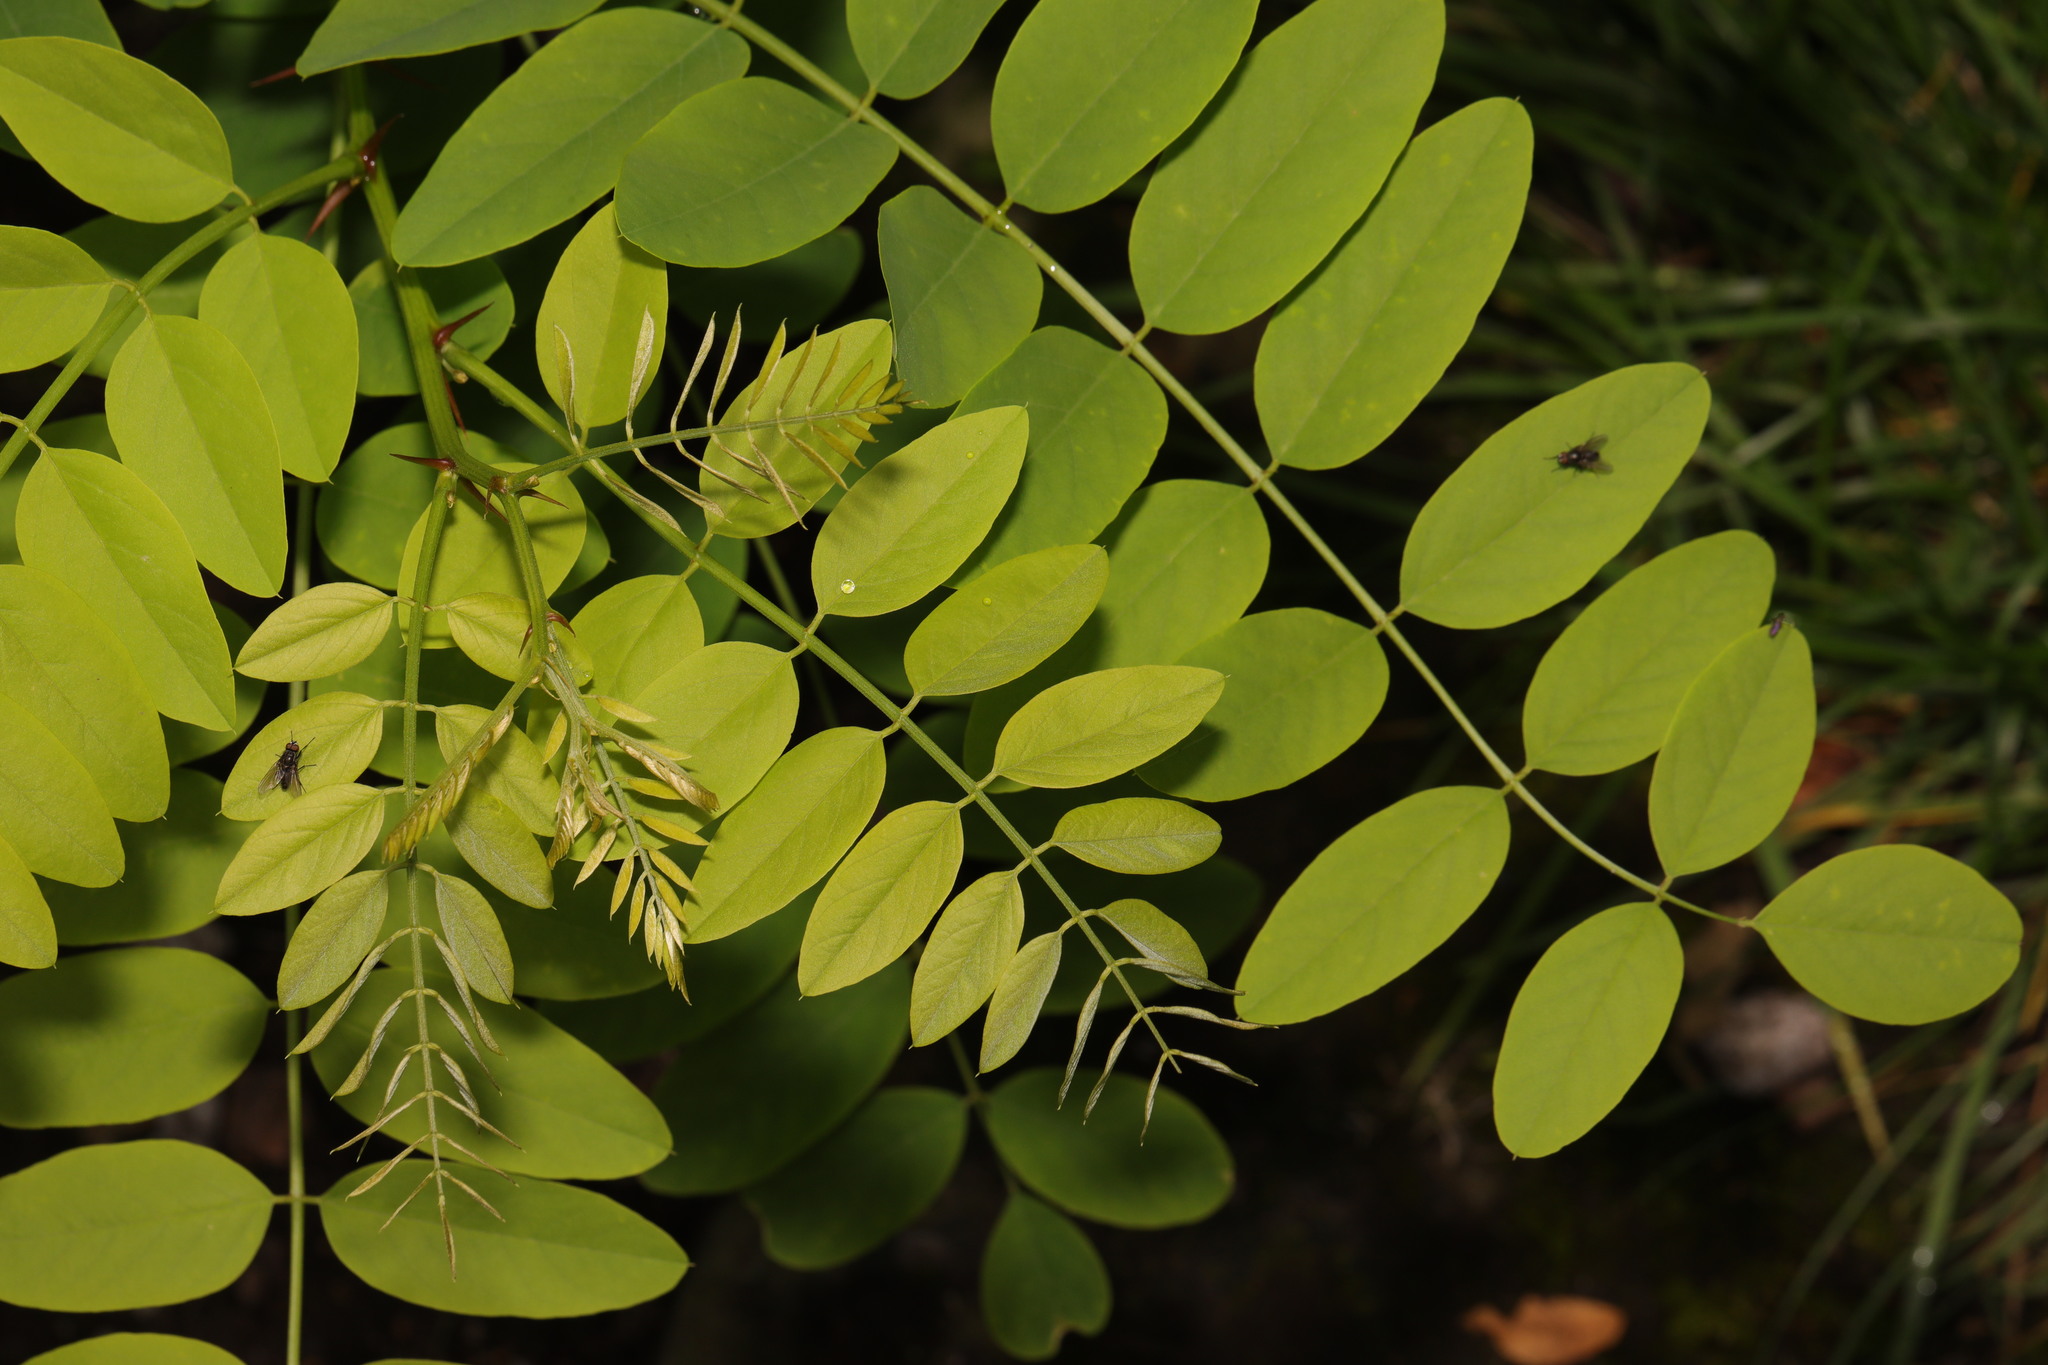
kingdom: Plantae
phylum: Tracheophyta
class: Magnoliopsida
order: Fabales
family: Fabaceae
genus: Robinia
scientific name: Robinia pseudoacacia
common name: Black locust
